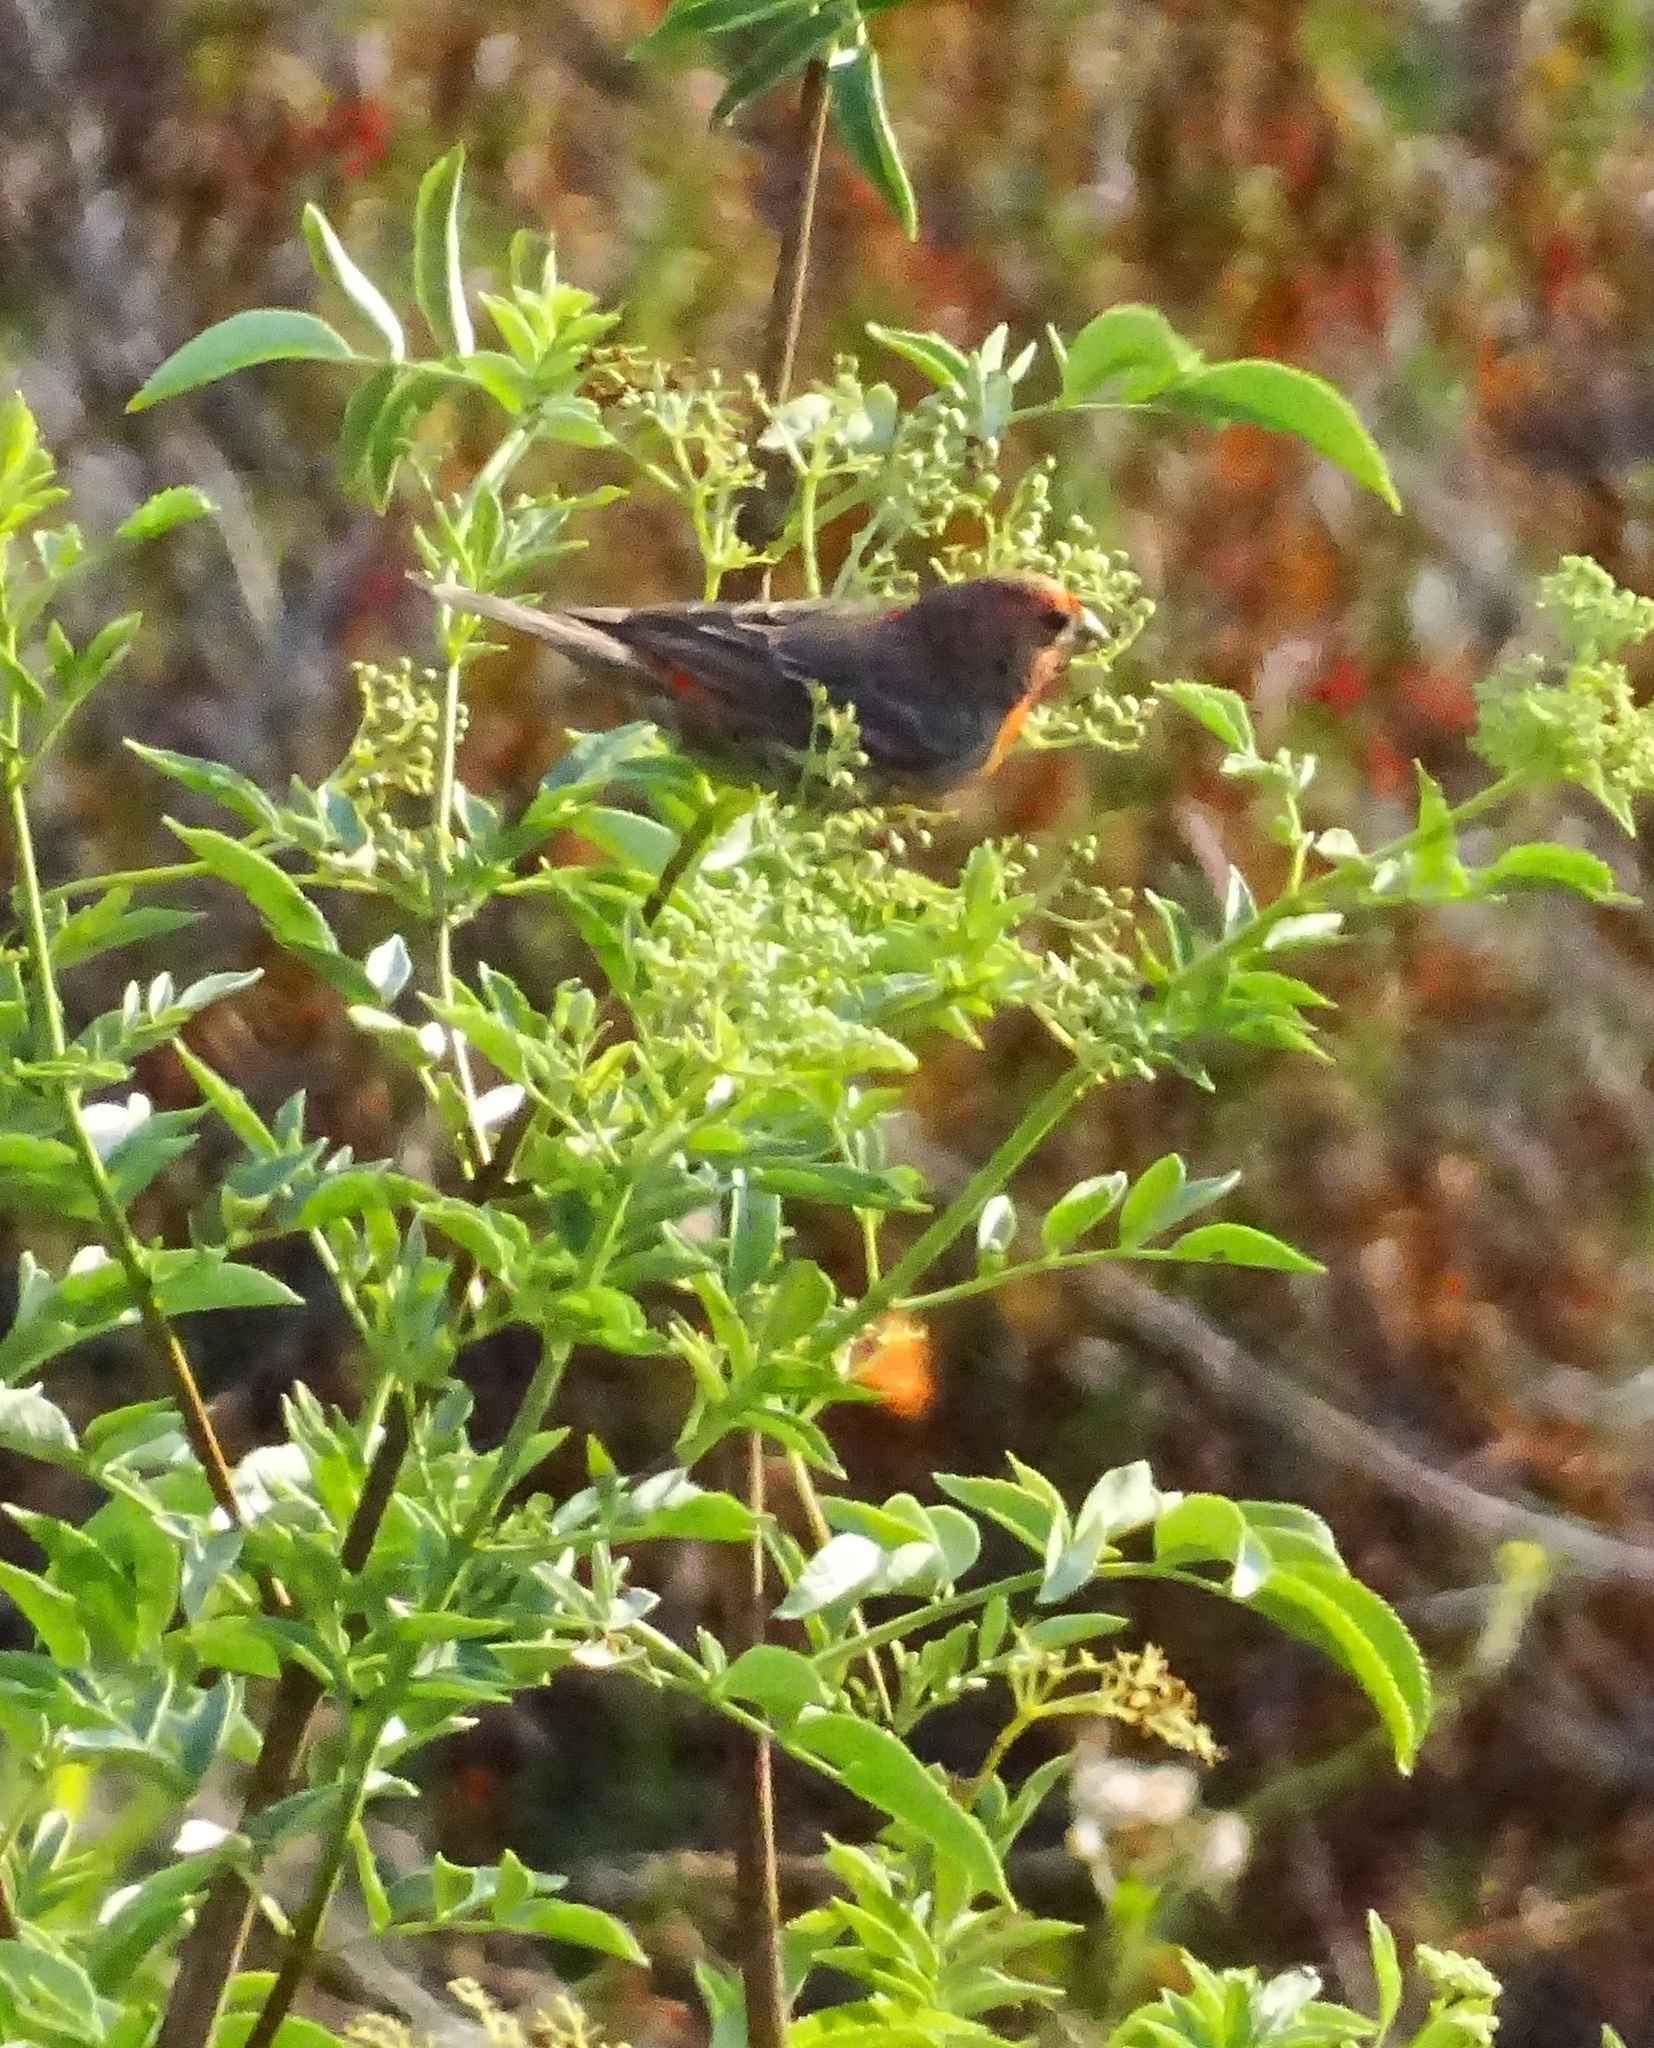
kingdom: Animalia
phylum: Chordata
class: Aves
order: Passeriformes
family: Fringillidae
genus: Haemorhous
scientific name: Haemorhous mexicanus
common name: House finch
